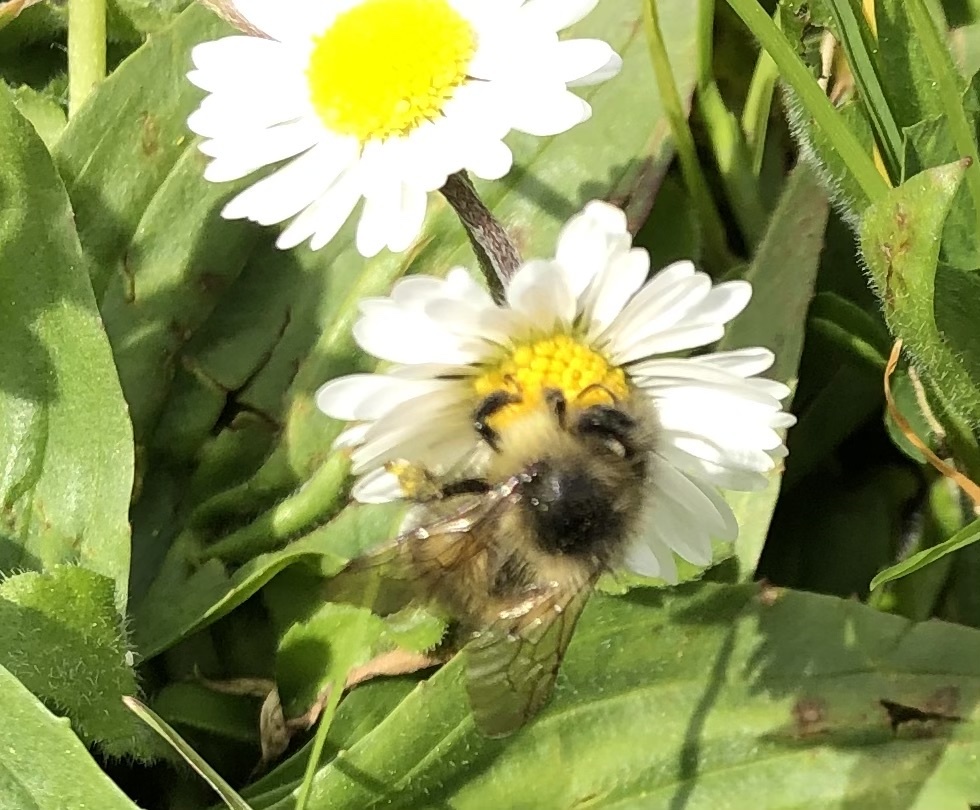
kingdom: Animalia
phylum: Arthropoda
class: Insecta
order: Hymenoptera
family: Apidae
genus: Bombus
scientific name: Bombus mixtus
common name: Fuzzy-horned bumble bee
